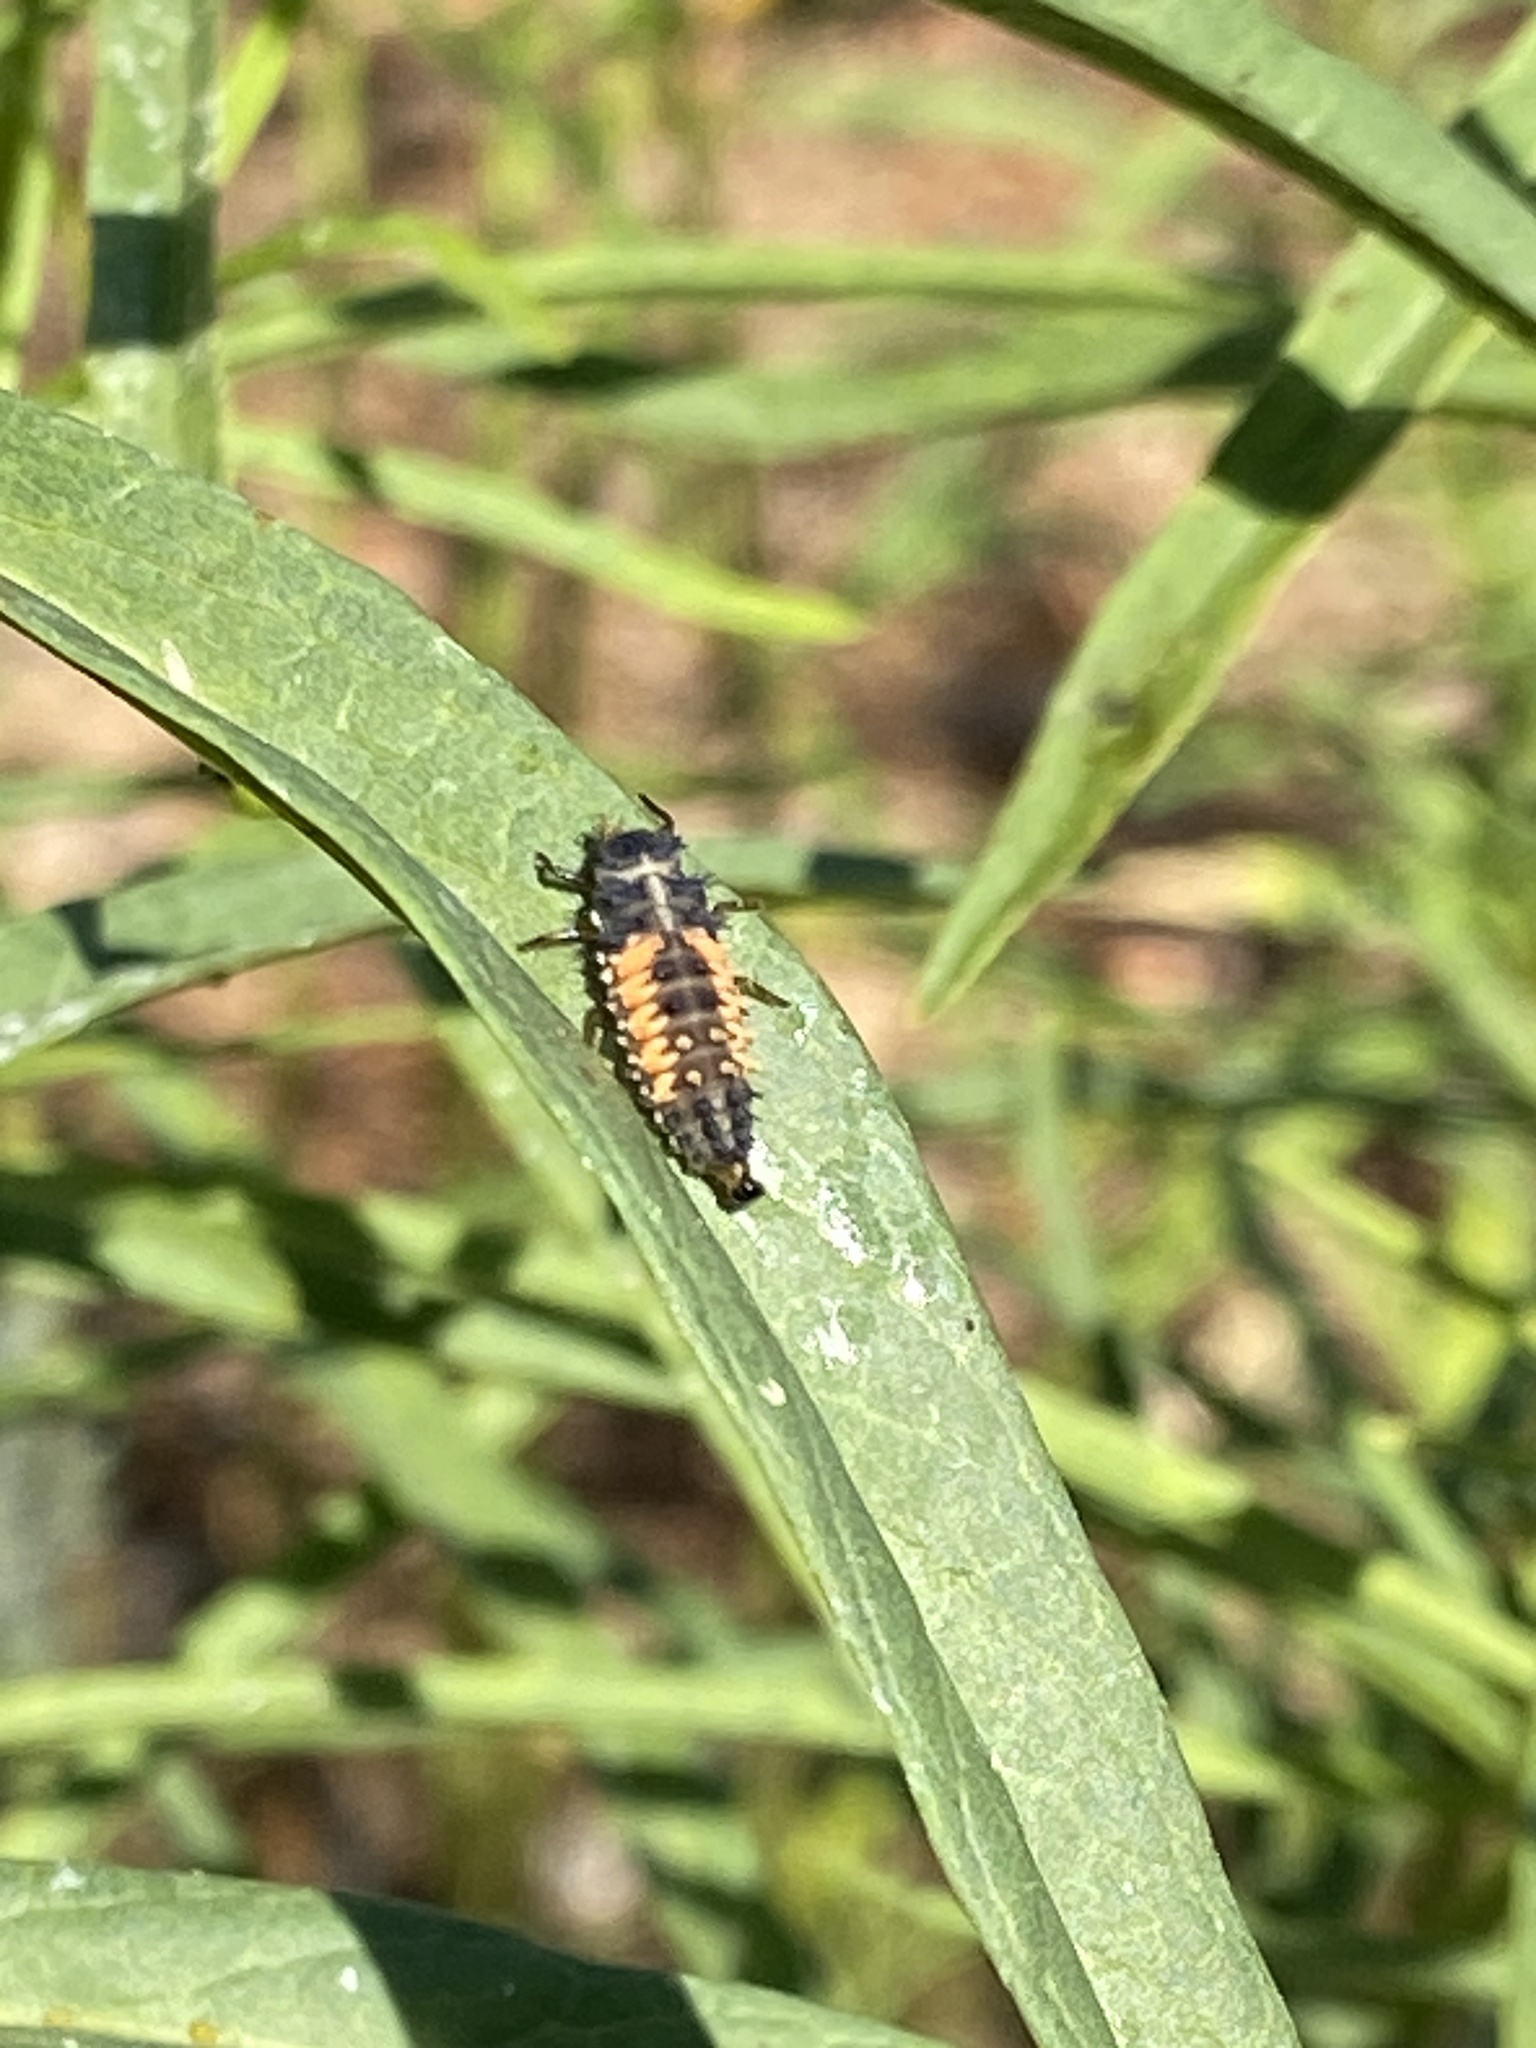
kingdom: Animalia
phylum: Arthropoda
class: Insecta
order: Coleoptera
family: Coccinellidae
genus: Harmonia
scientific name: Harmonia axyridis
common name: Harlequin ladybird
